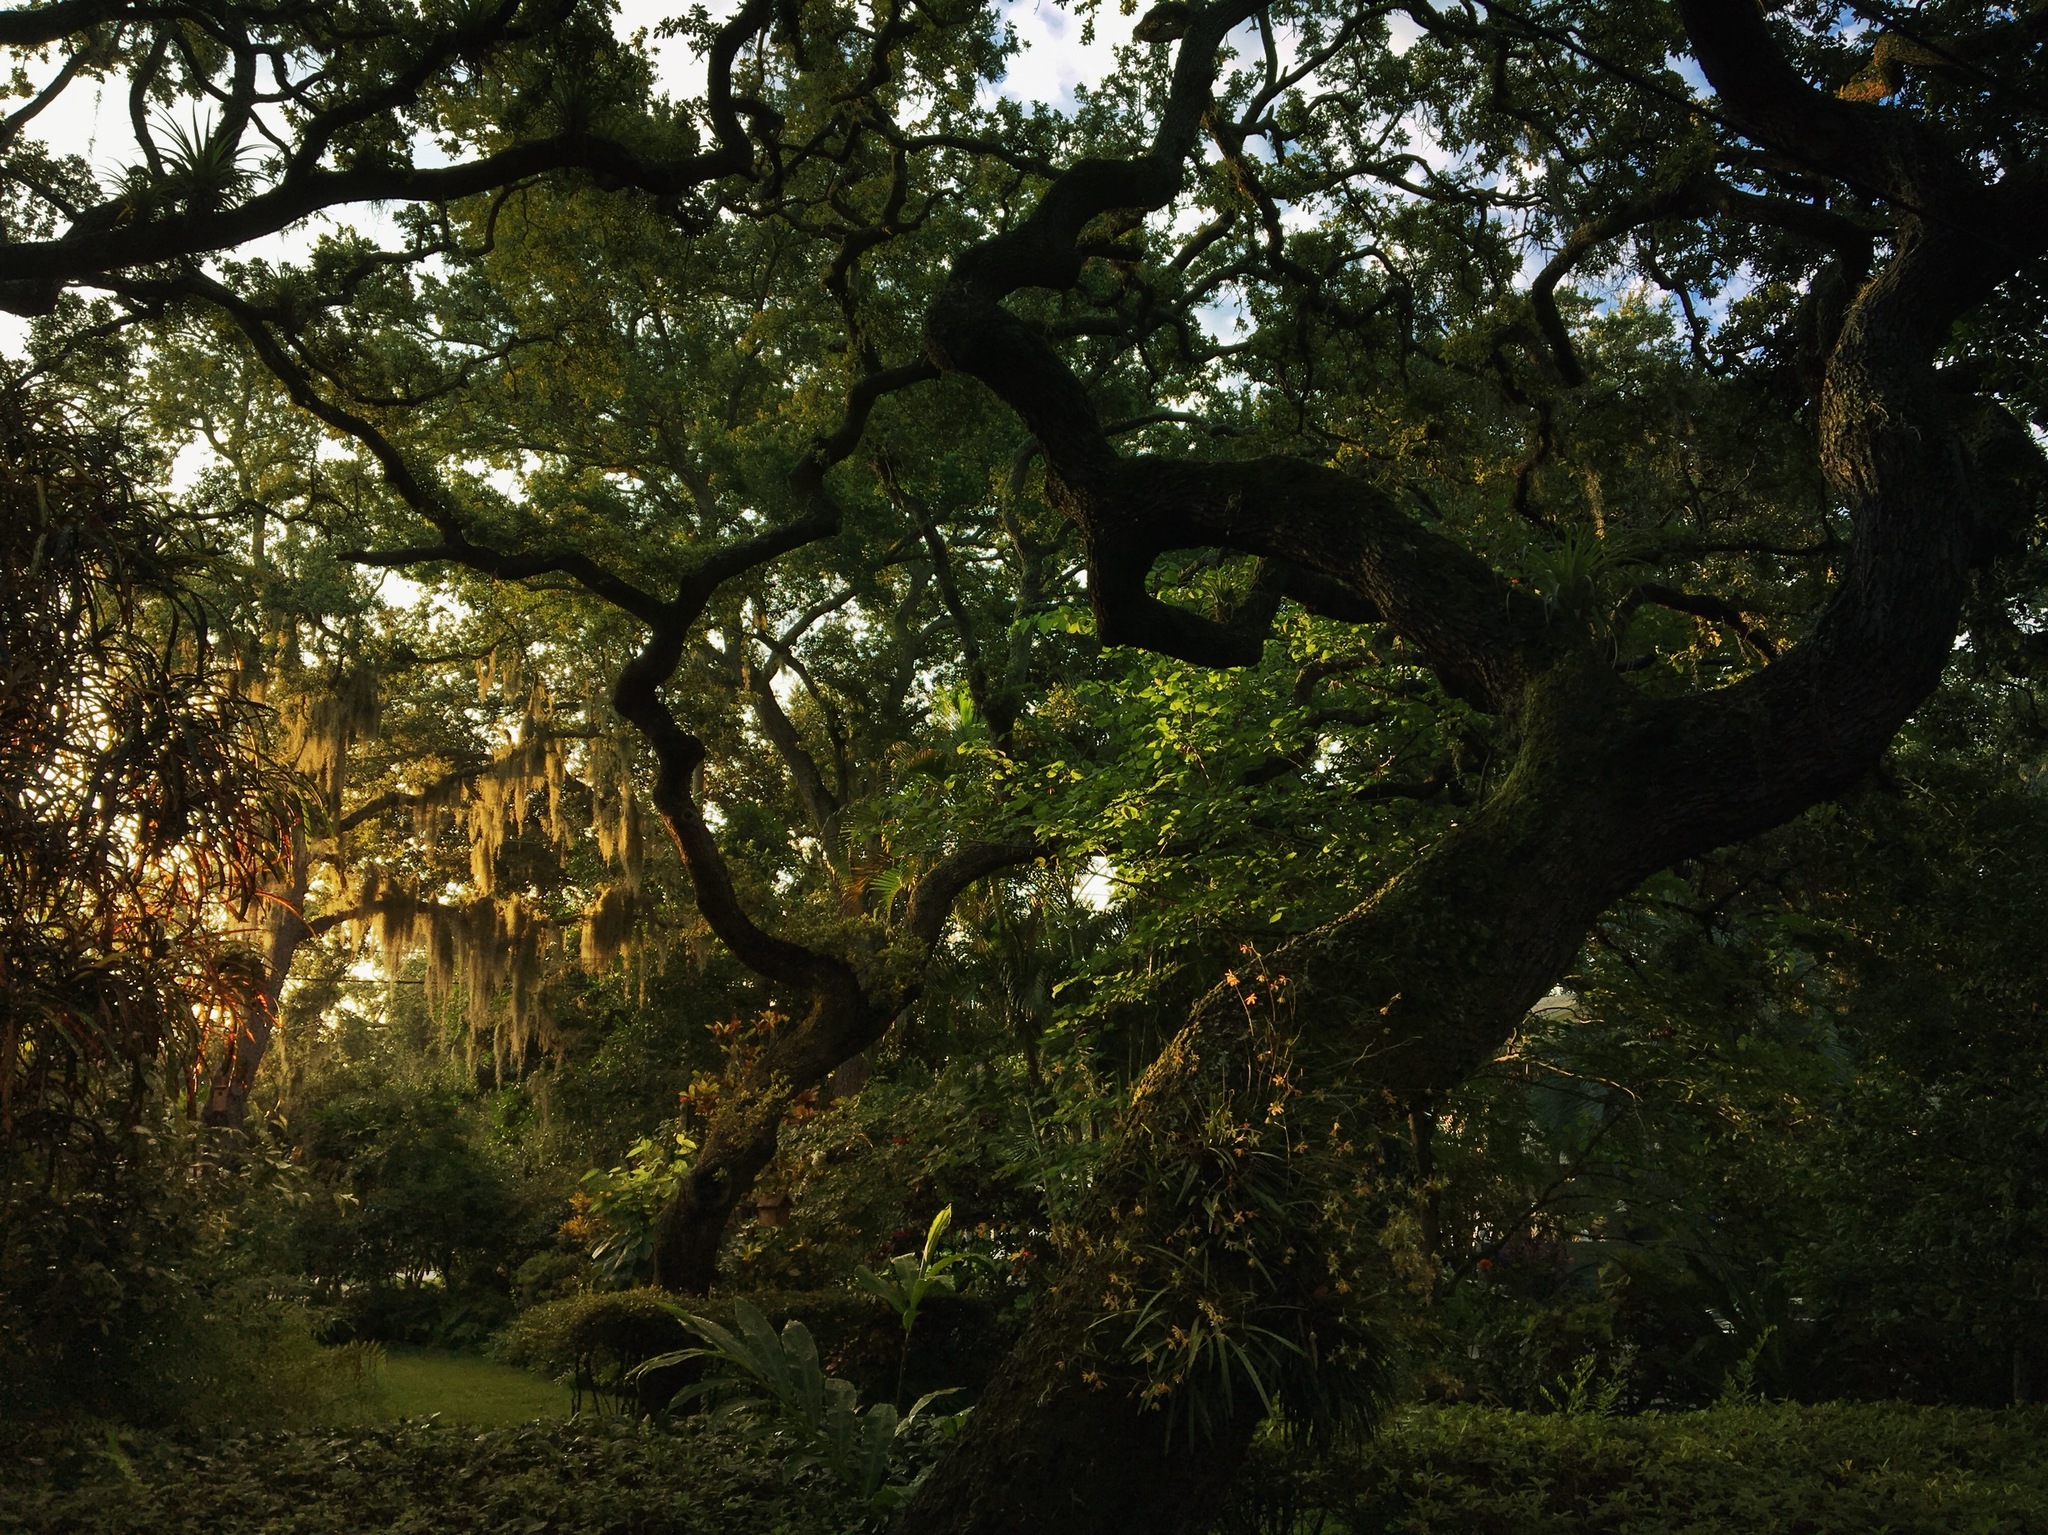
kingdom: Plantae
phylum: Tracheophyta
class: Liliopsida
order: Poales
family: Bromeliaceae
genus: Tillandsia
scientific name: Tillandsia usneoides
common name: Spanish moss
